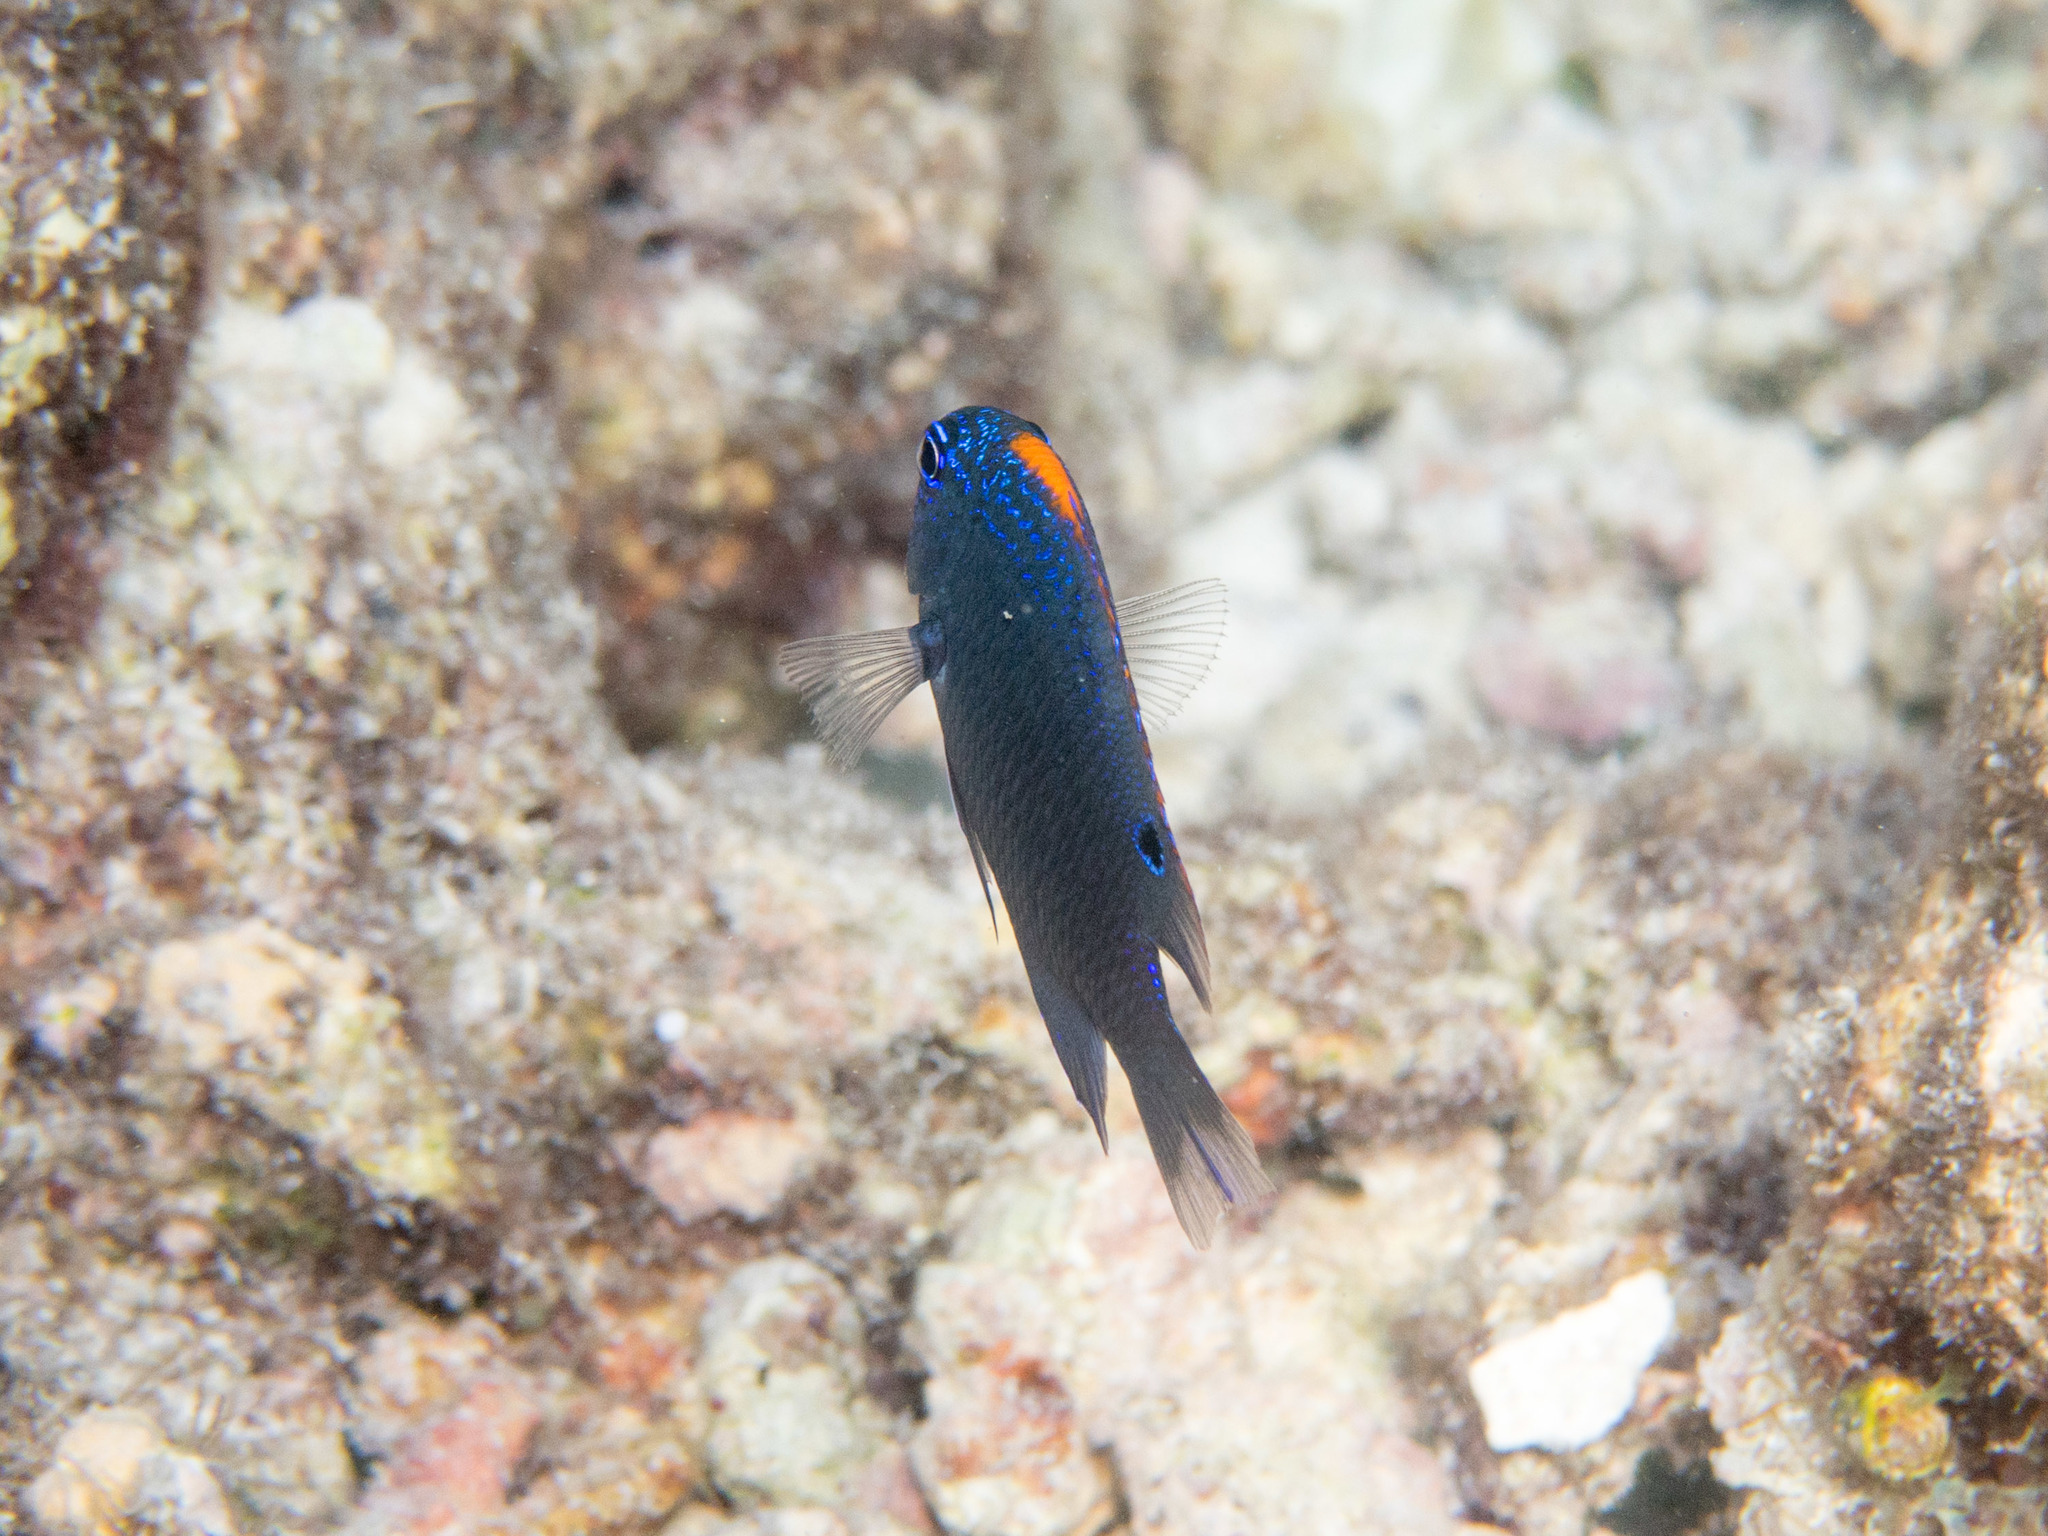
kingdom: Animalia
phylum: Chordata
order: Perciformes
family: Pomacentridae
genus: Pomacentrus
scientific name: Pomacentrus indicus
